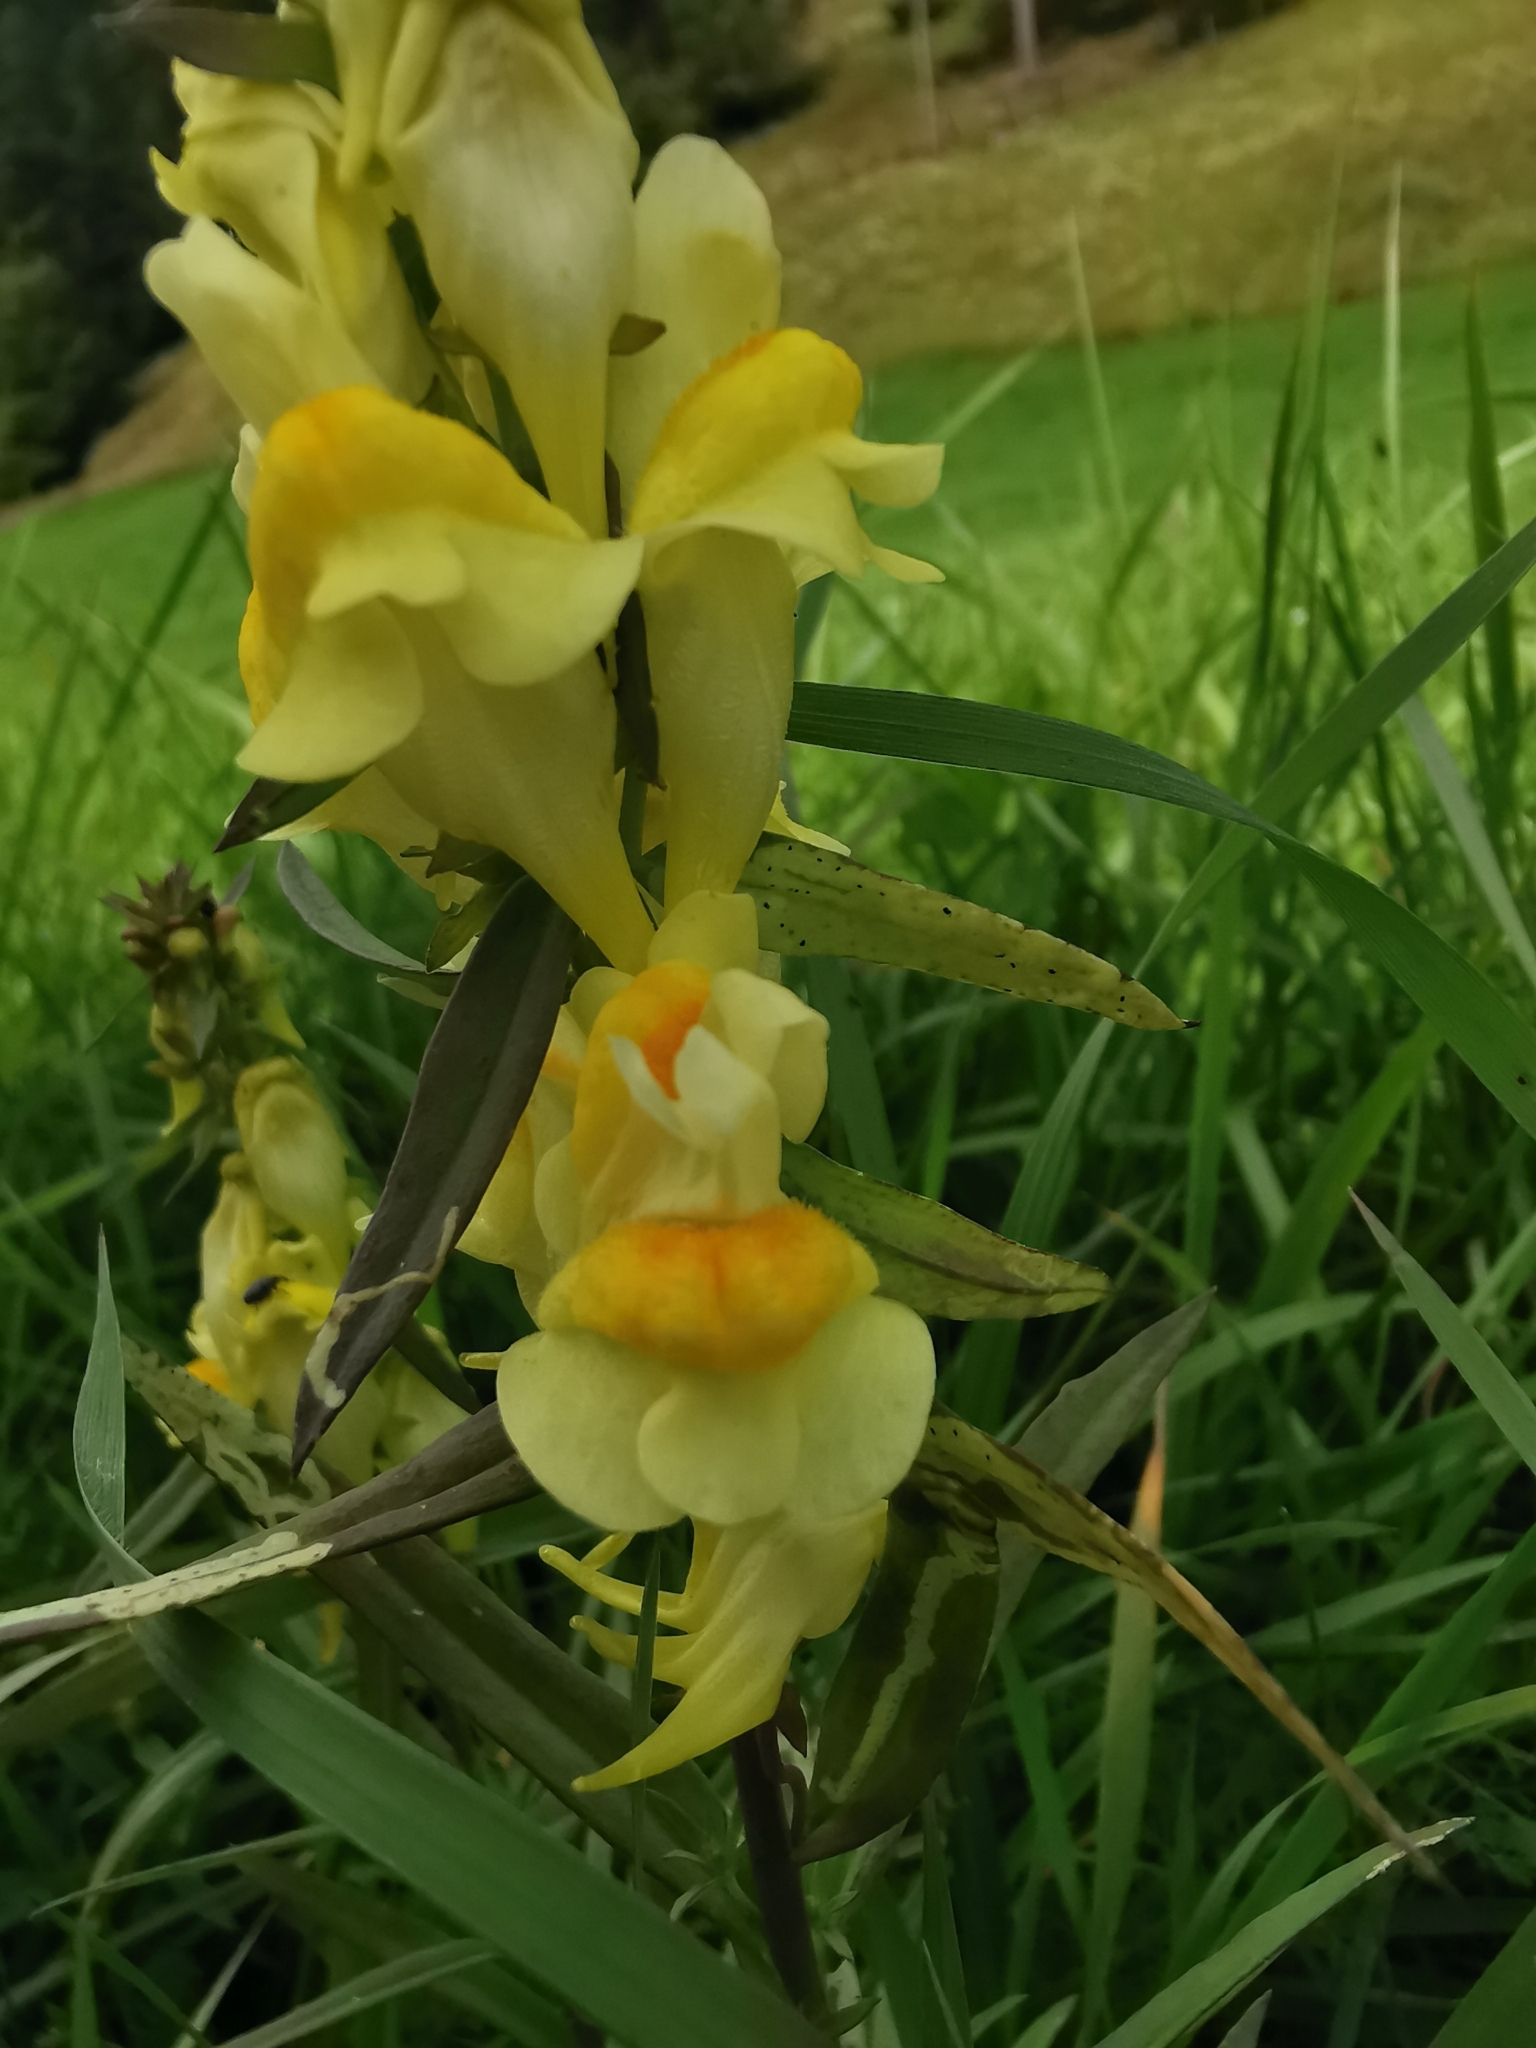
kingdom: Plantae
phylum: Tracheophyta
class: Magnoliopsida
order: Lamiales
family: Plantaginaceae
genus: Linaria
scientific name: Linaria vulgaris
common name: Butter and eggs
